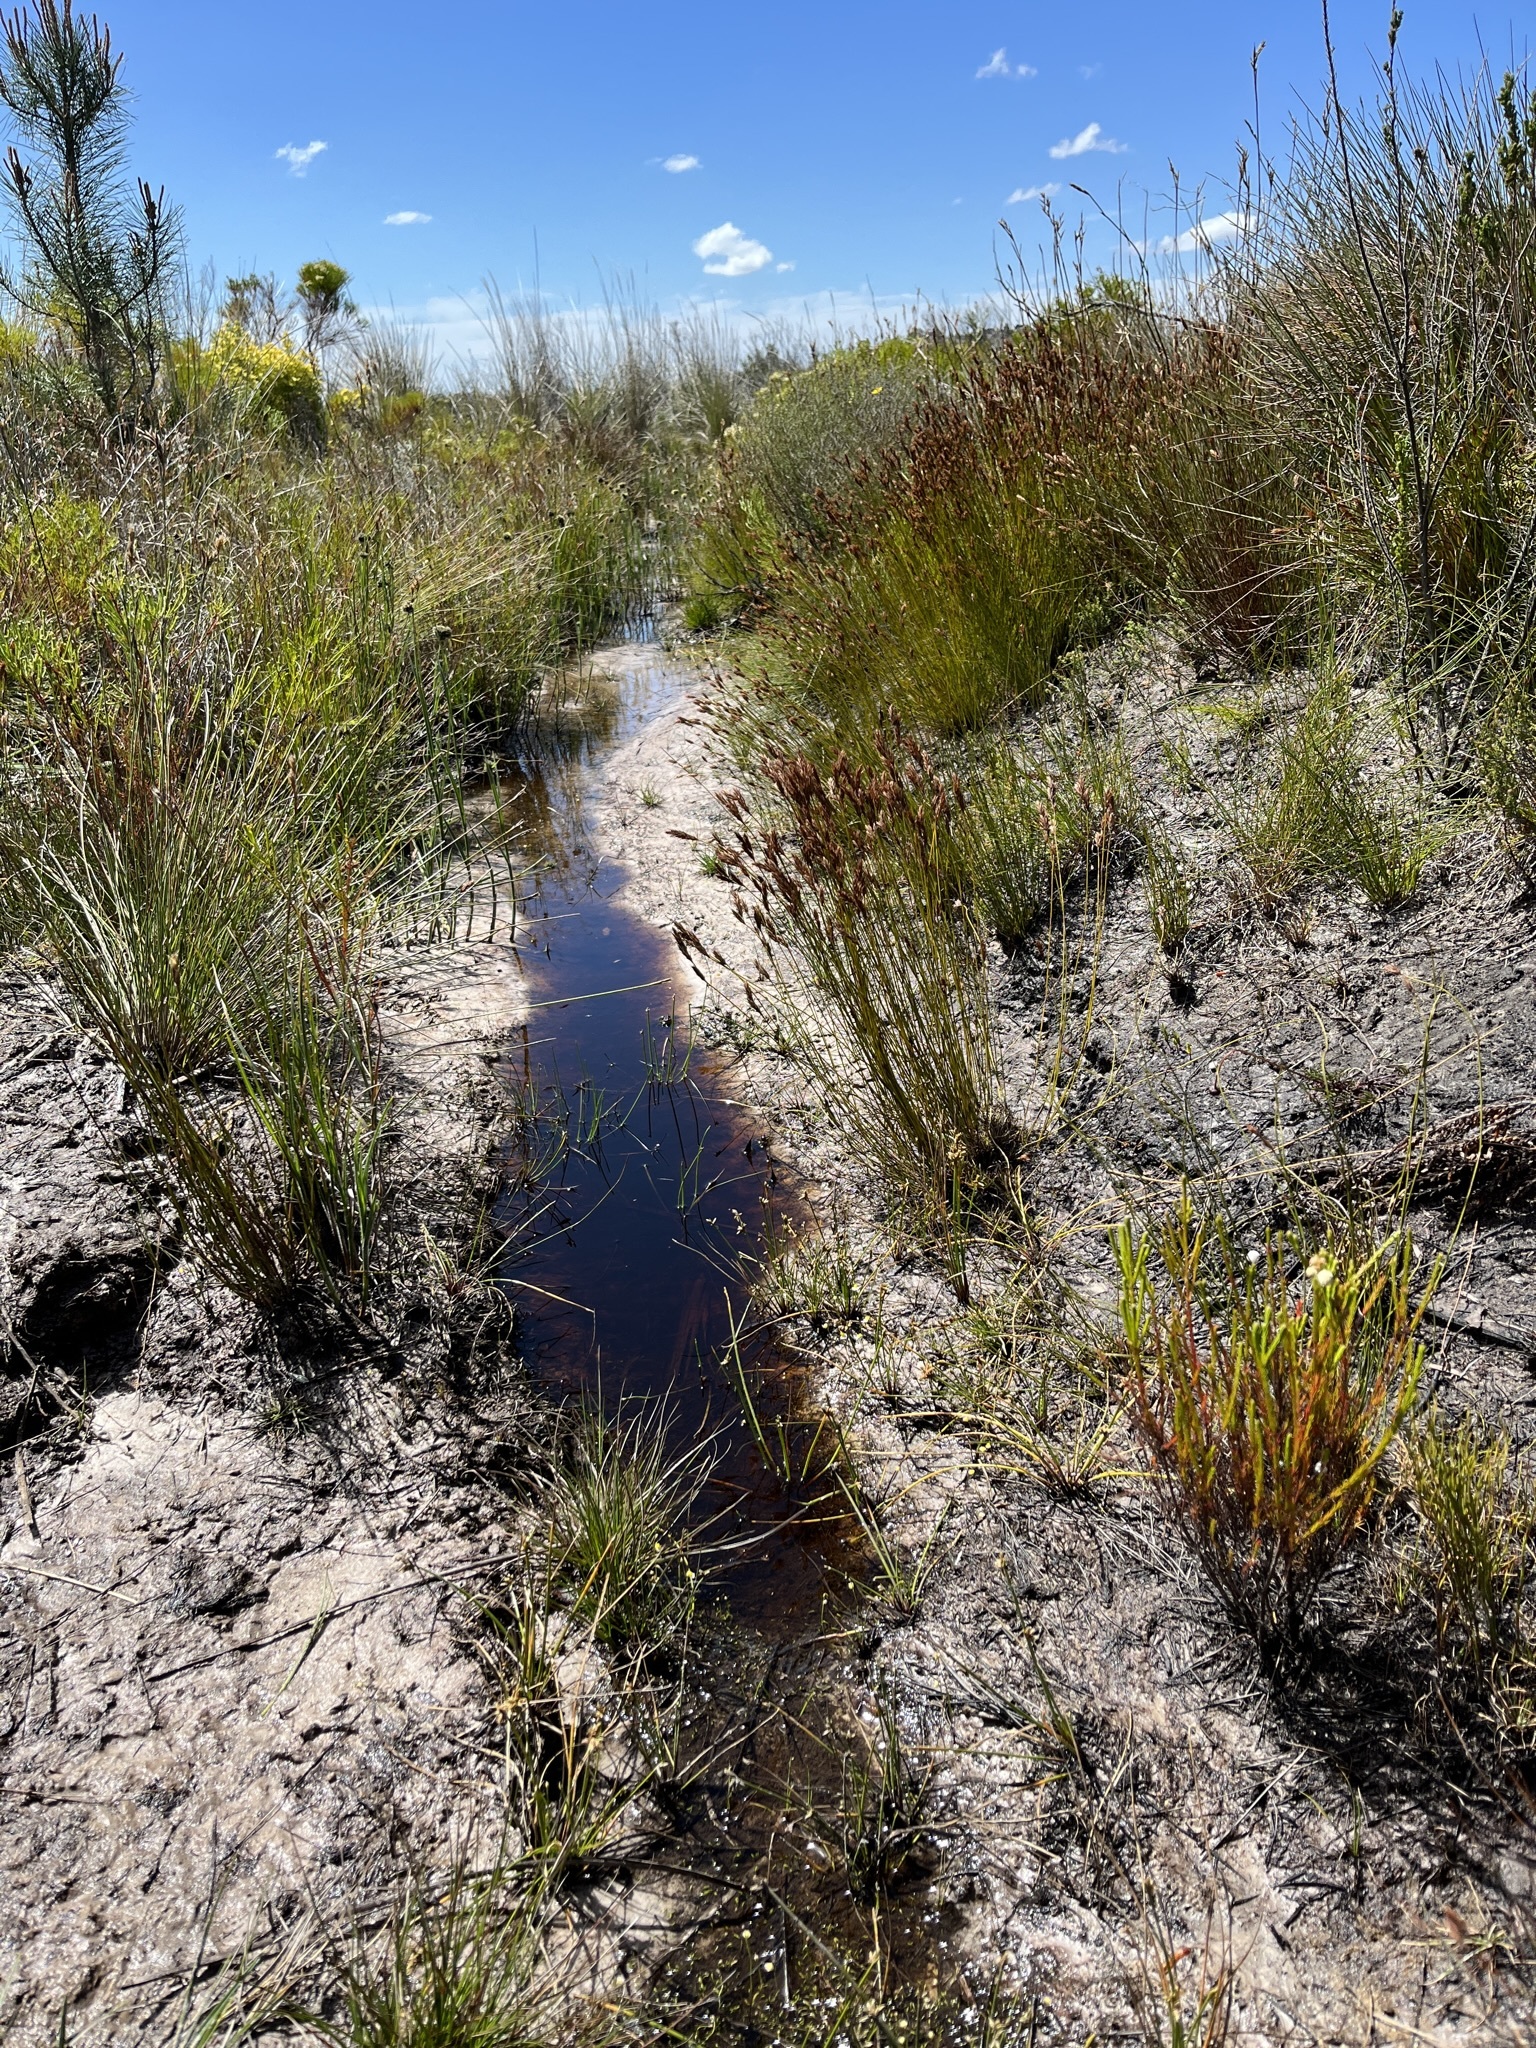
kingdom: Plantae
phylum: Tracheophyta
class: Magnoliopsida
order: Ericales
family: Ericaceae
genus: Erica
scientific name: Erica colorans
